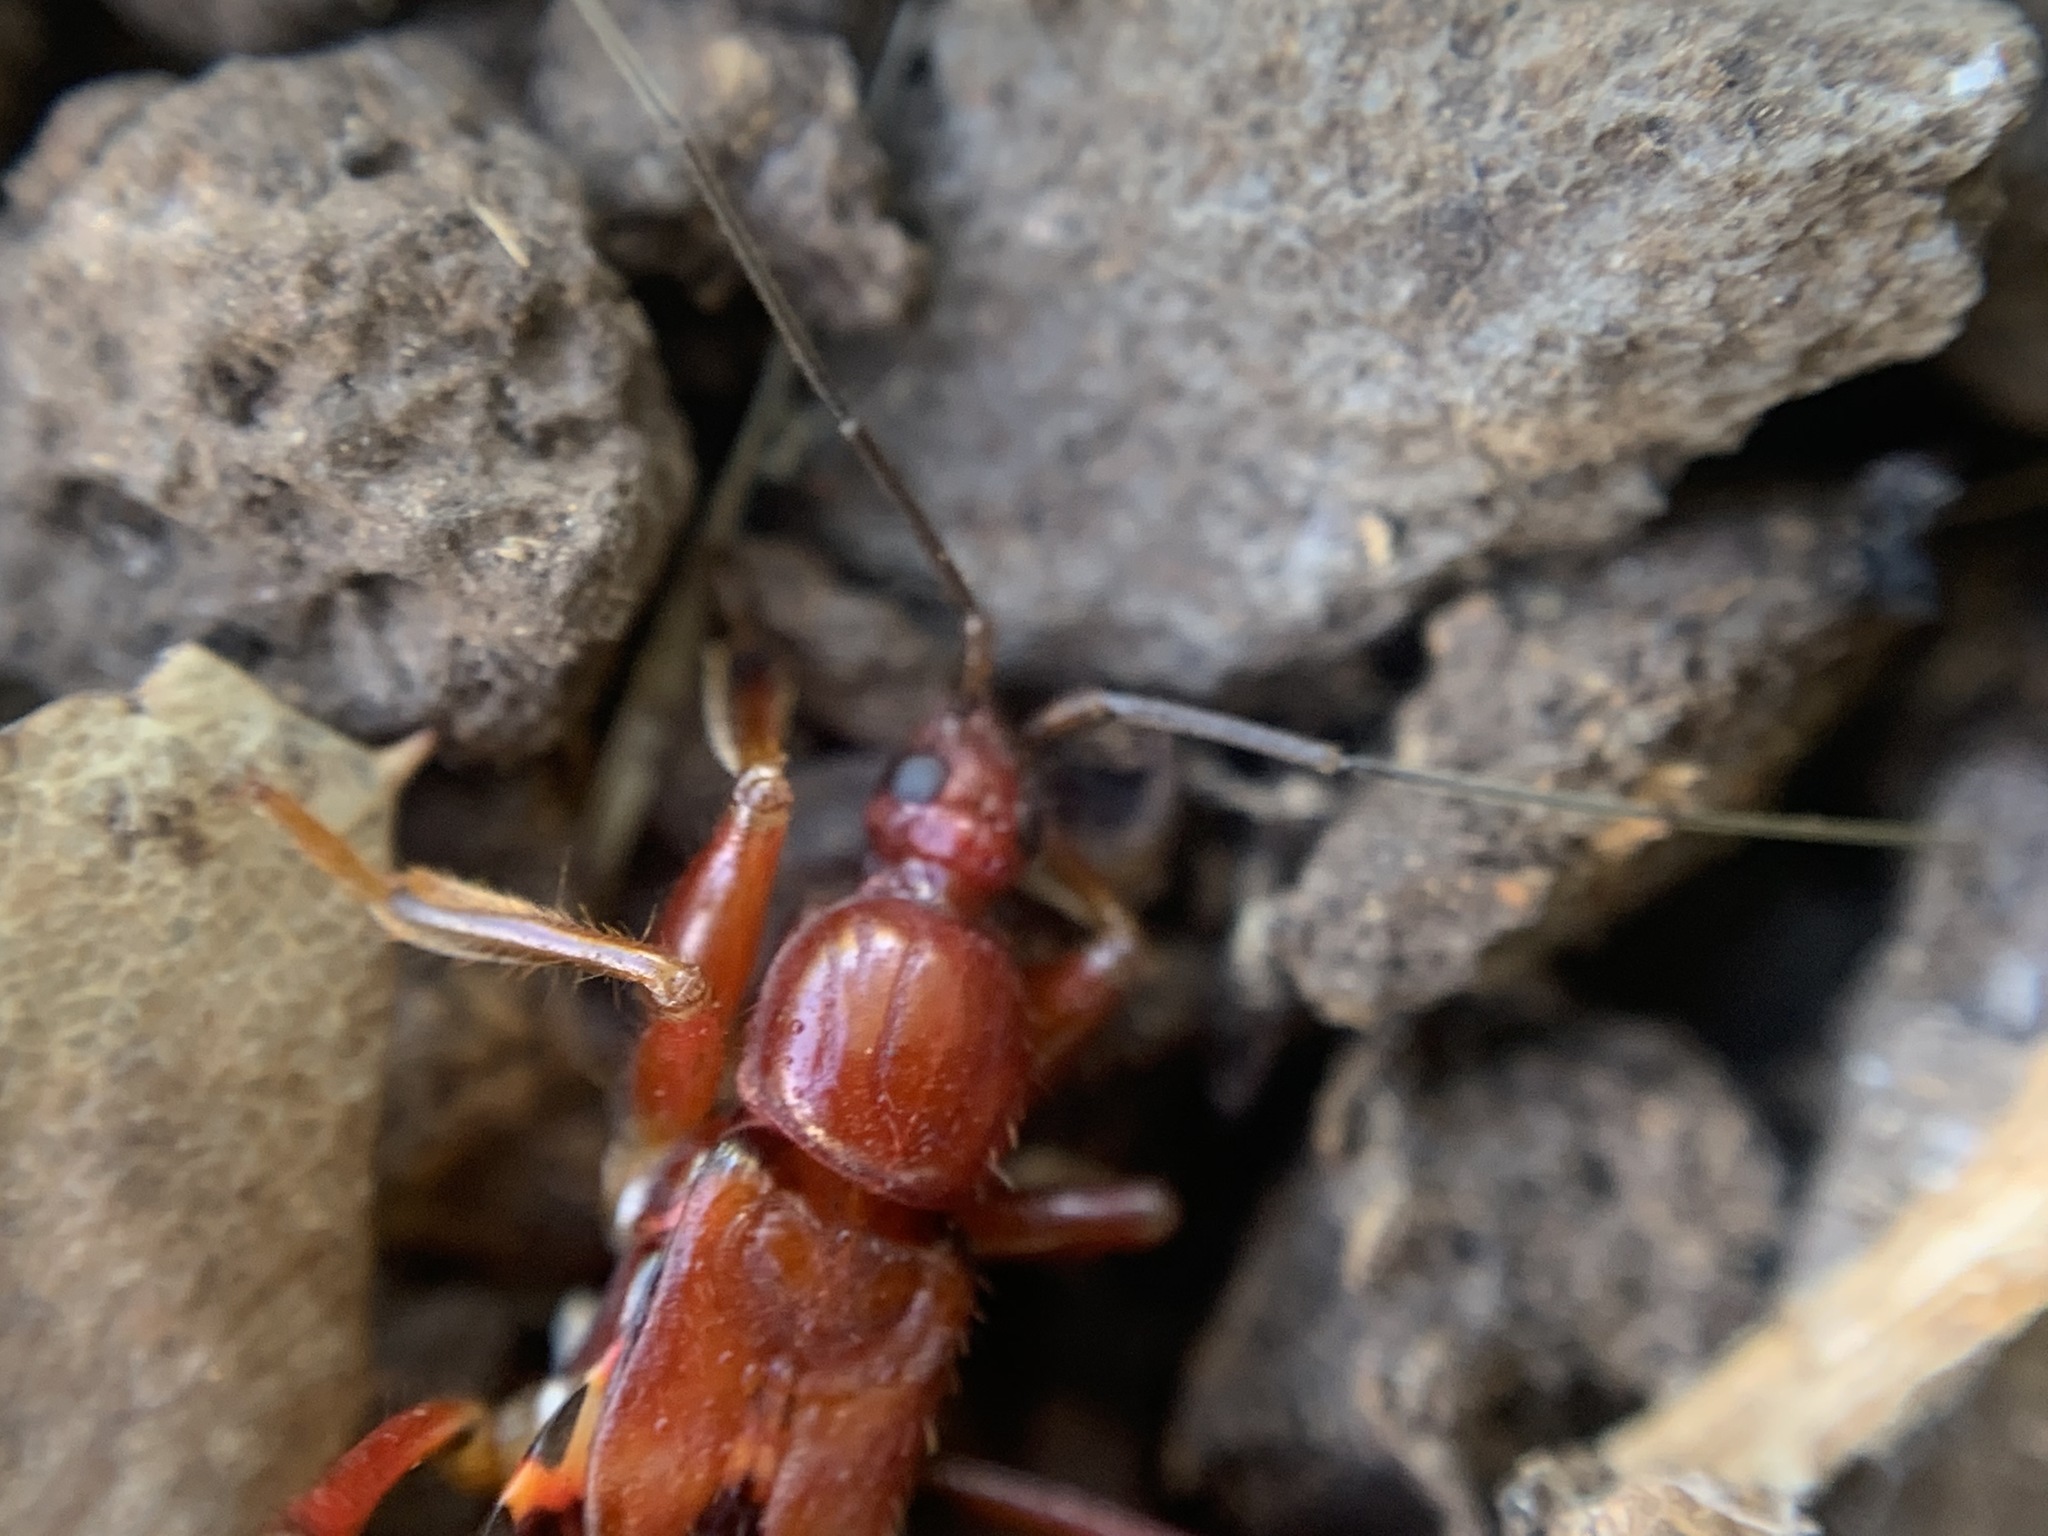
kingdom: Animalia
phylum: Arthropoda
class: Insecta
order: Hemiptera
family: Reduviidae
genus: Rasahus
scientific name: Rasahus thoracicus
